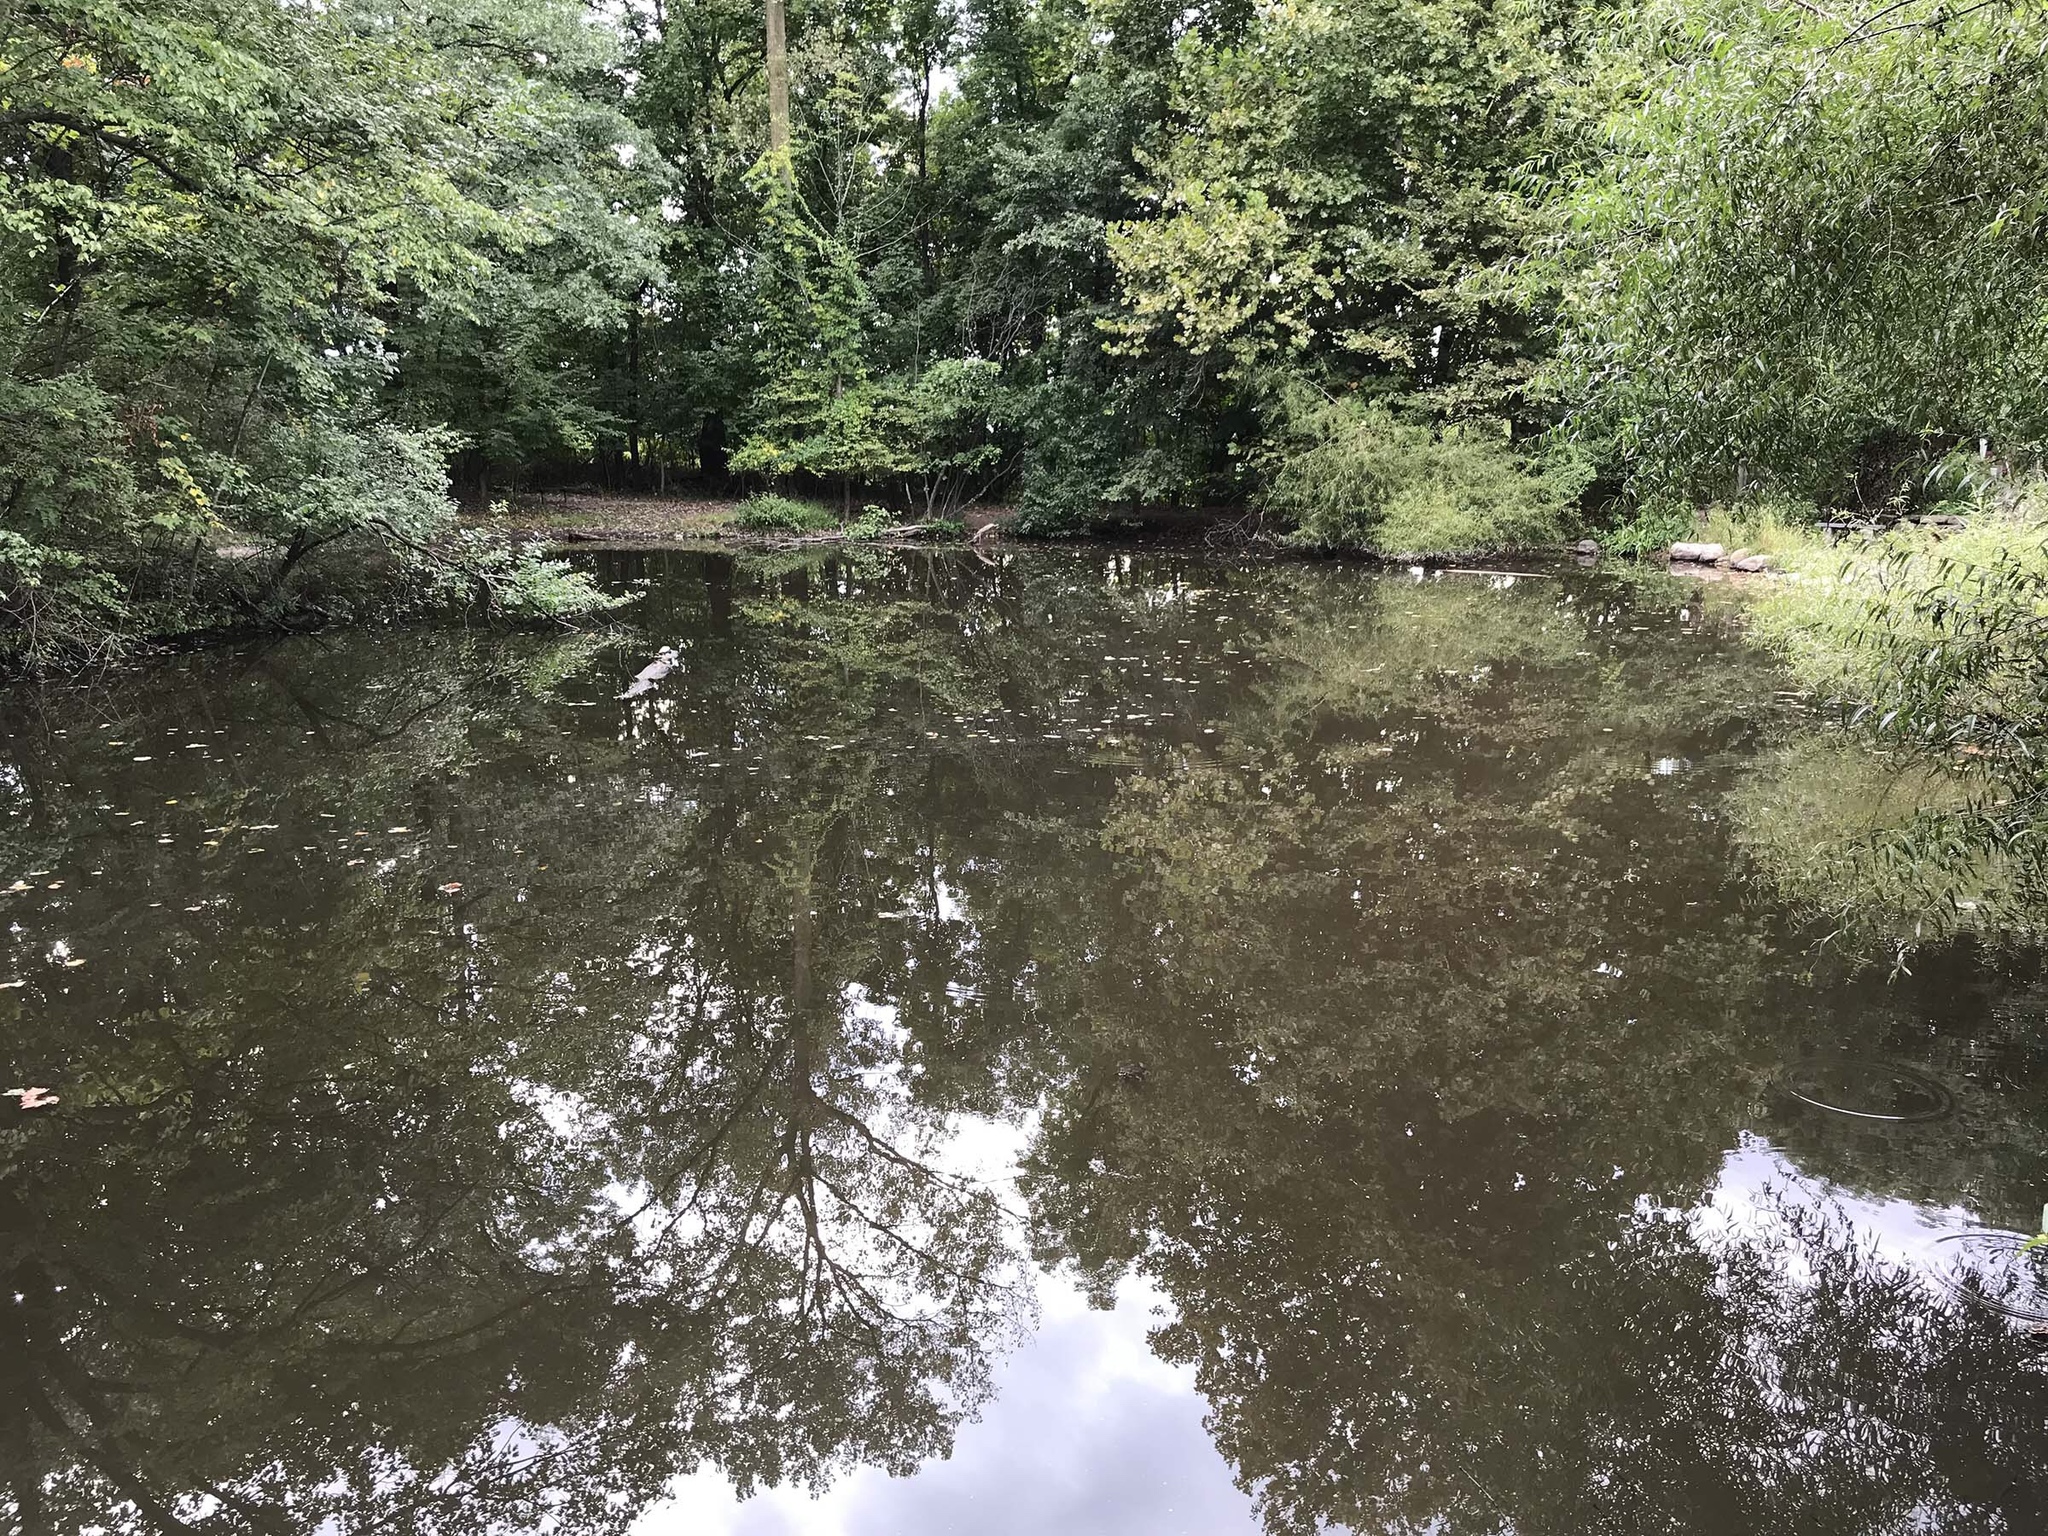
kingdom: Animalia
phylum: Chordata
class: Amphibia
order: Anura
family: Ranidae
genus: Lithobates
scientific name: Lithobates catesbeianus
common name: American bullfrog
